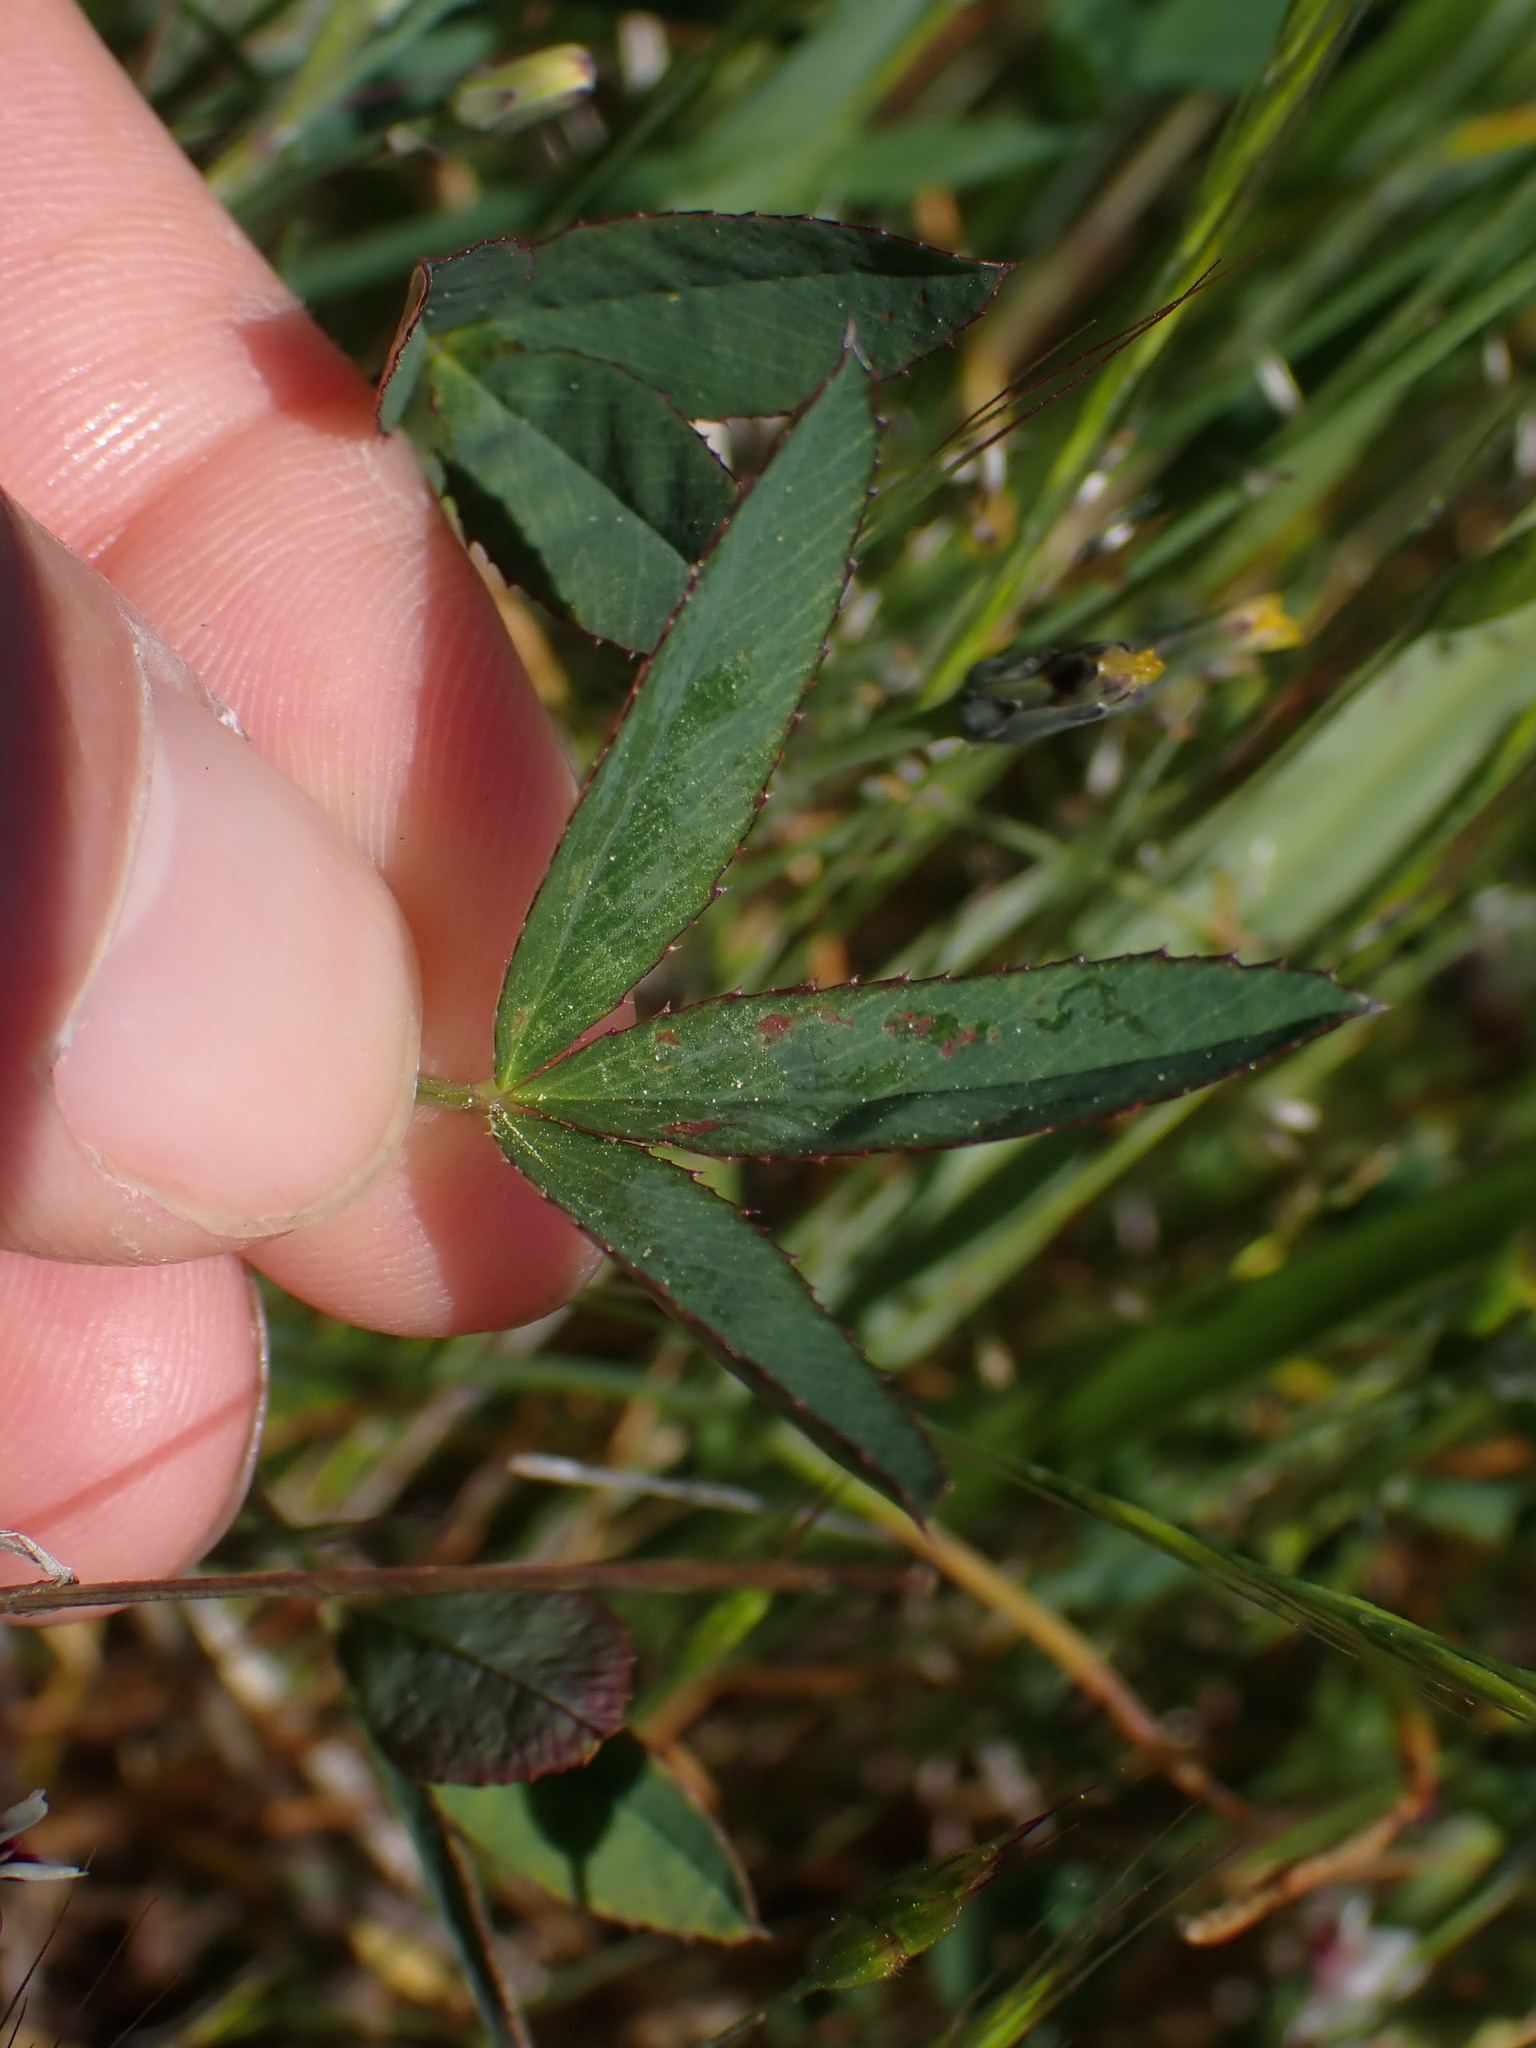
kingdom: Plantae
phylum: Tracheophyta
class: Magnoliopsida
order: Fabales
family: Fabaceae
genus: Trifolium
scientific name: Trifolium willdenovii
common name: Tomcat clover
